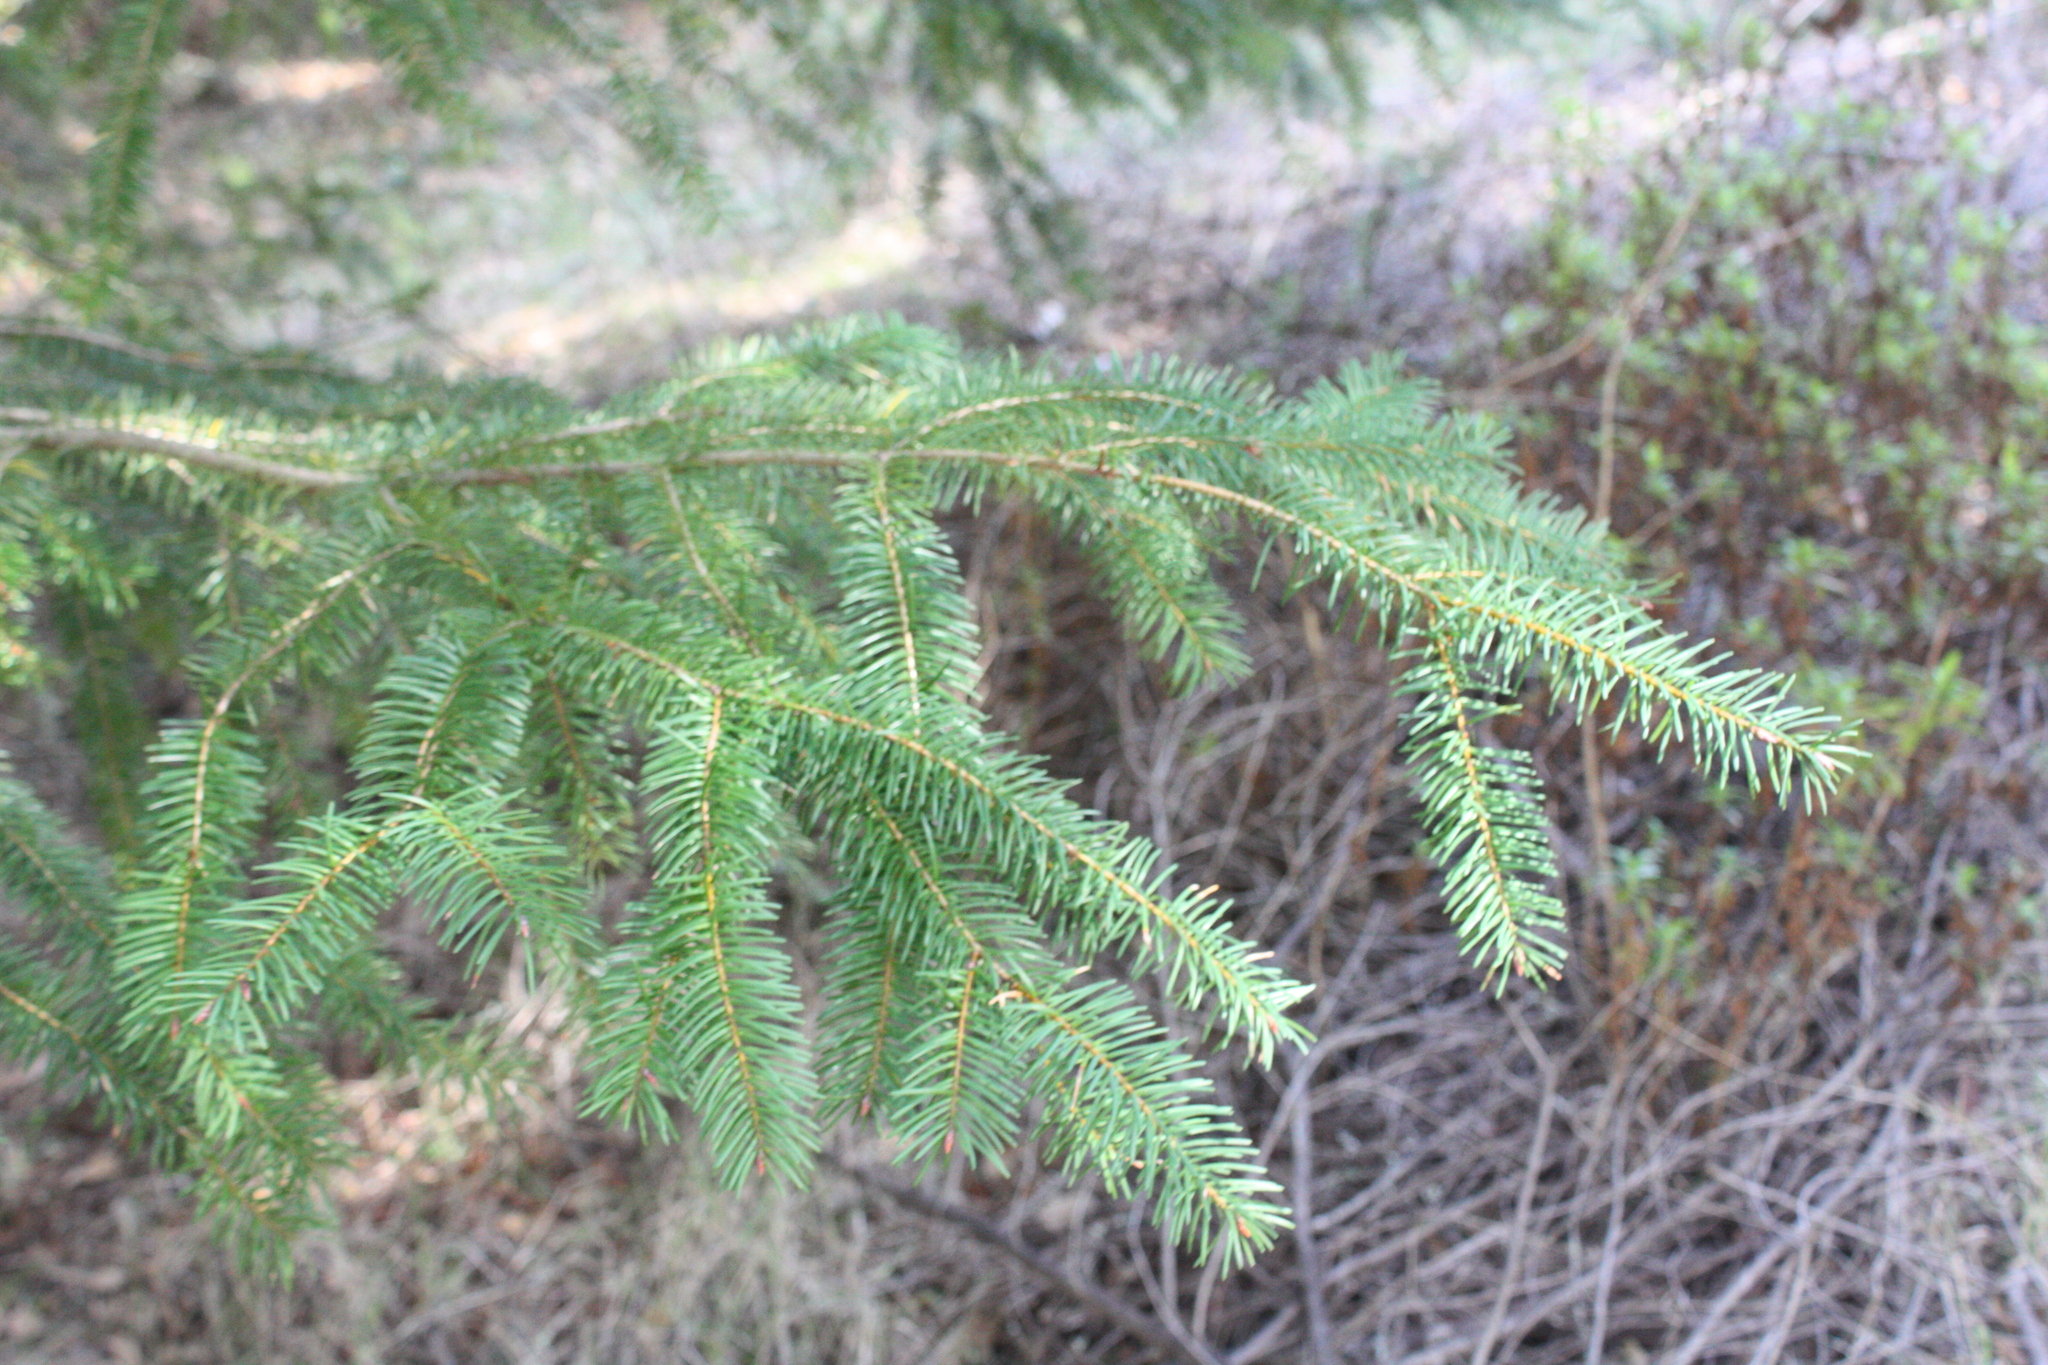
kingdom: Plantae
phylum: Tracheophyta
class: Pinopsida
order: Pinales
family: Pinaceae
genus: Pseudotsuga
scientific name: Pseudotsuga menziesii
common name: Douglas fir
